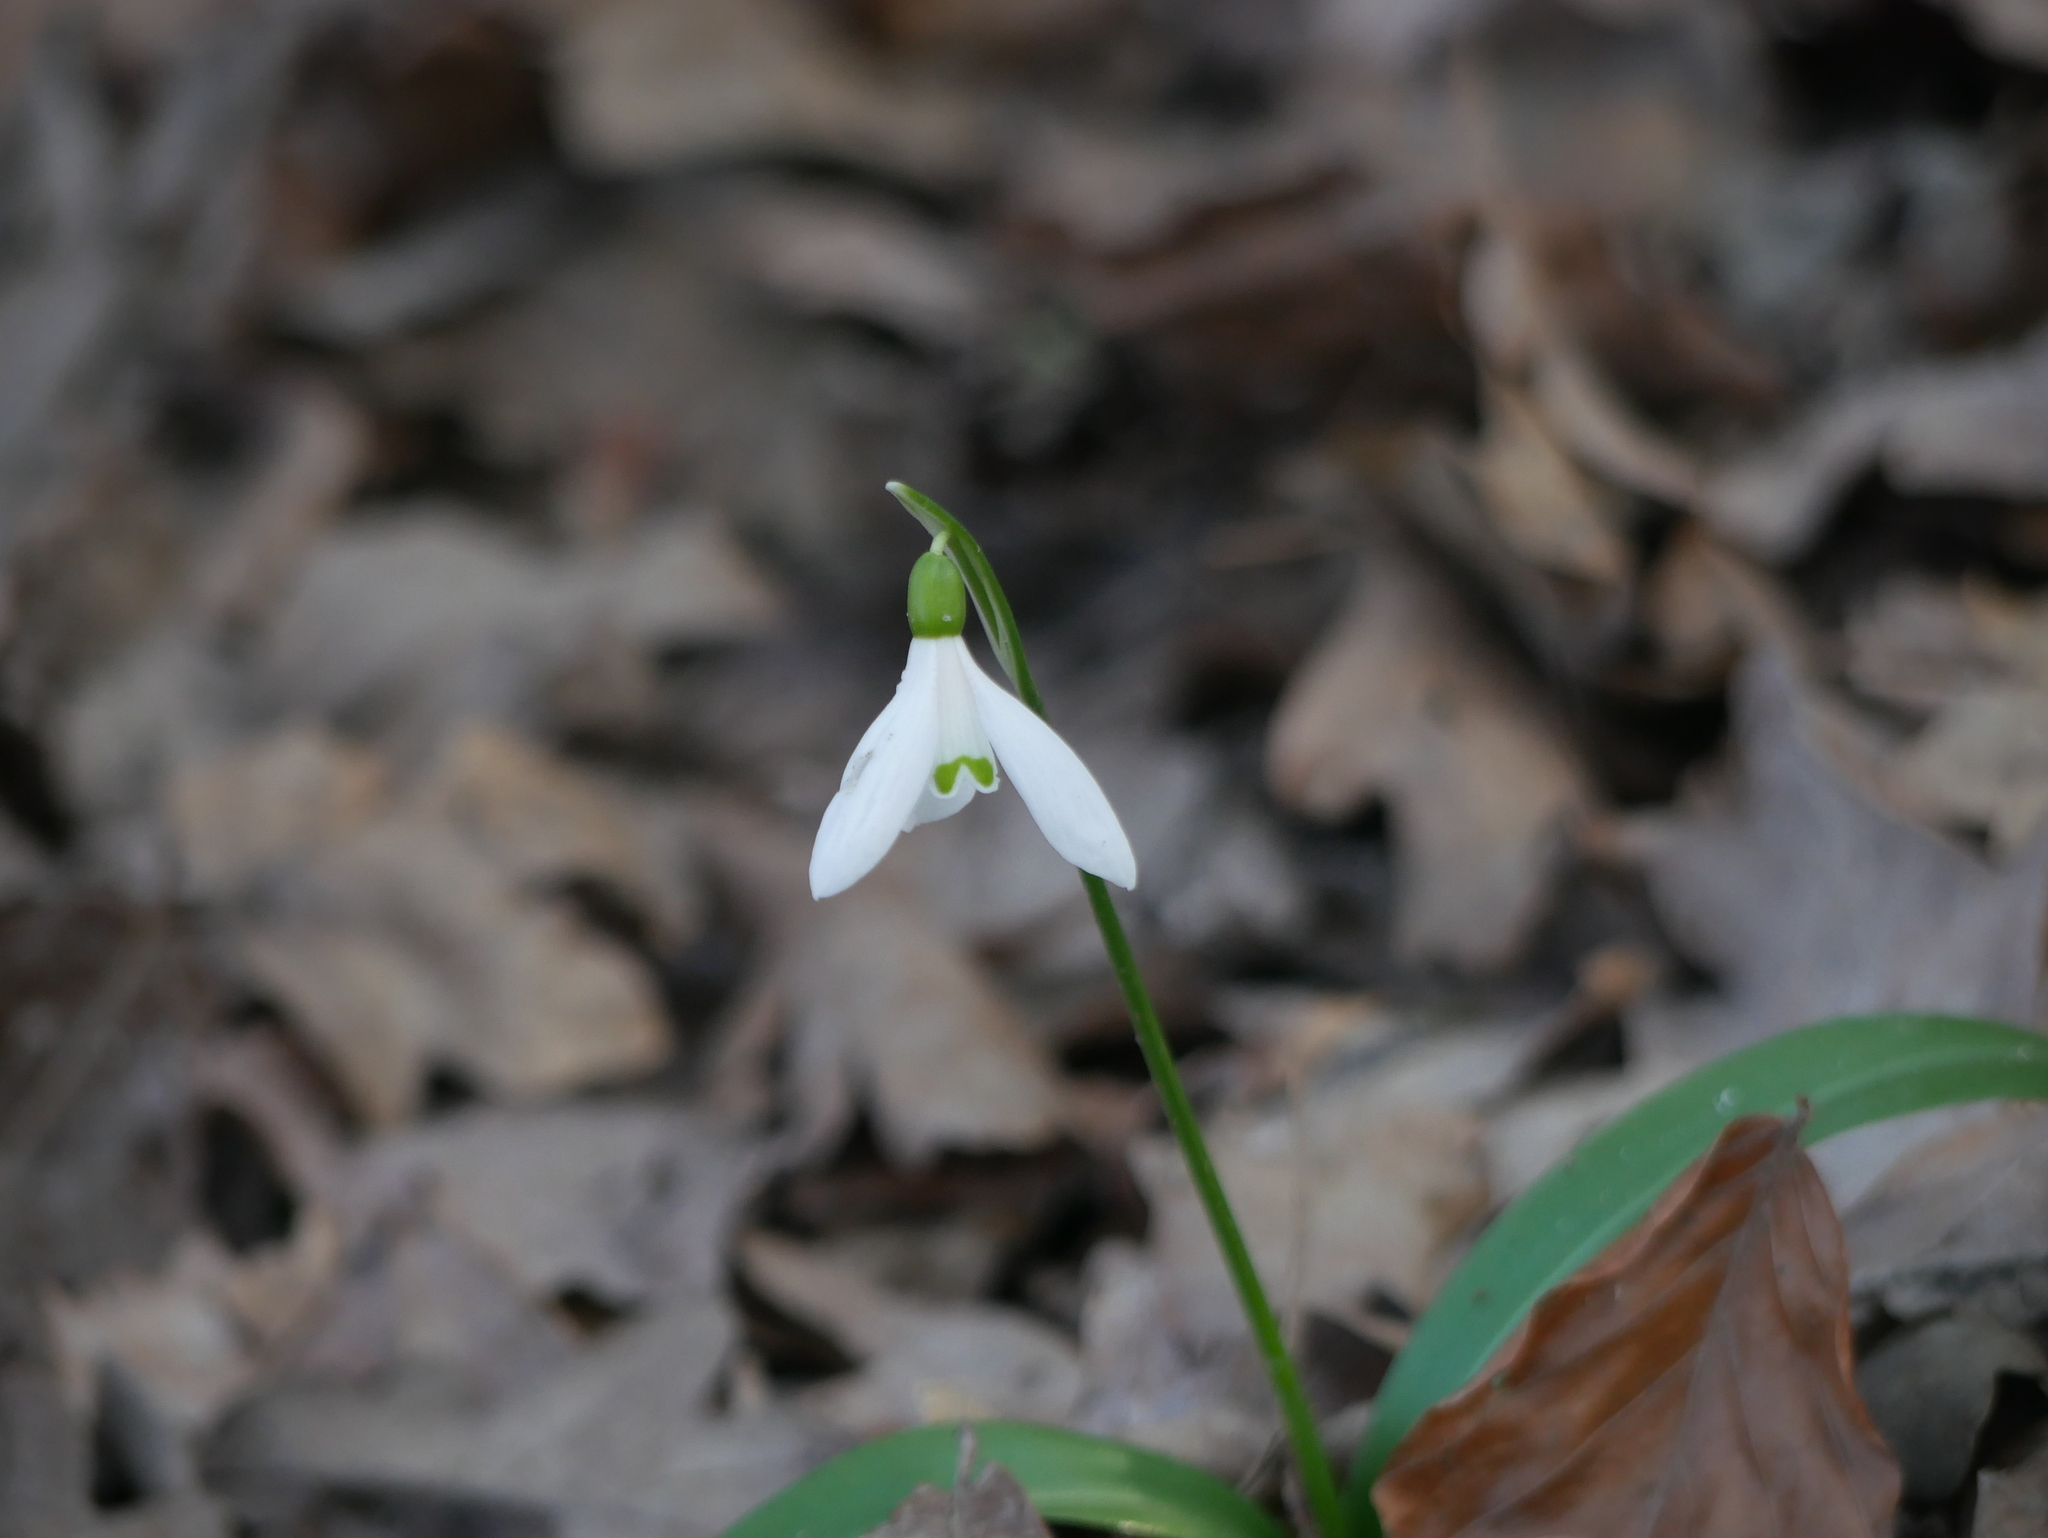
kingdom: Plantae
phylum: Tracheophyta
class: Liliopsida
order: Asparagales
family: Amaryllidaceae
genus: Galanthus
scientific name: Galanthus nivalis
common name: Snowdrop
